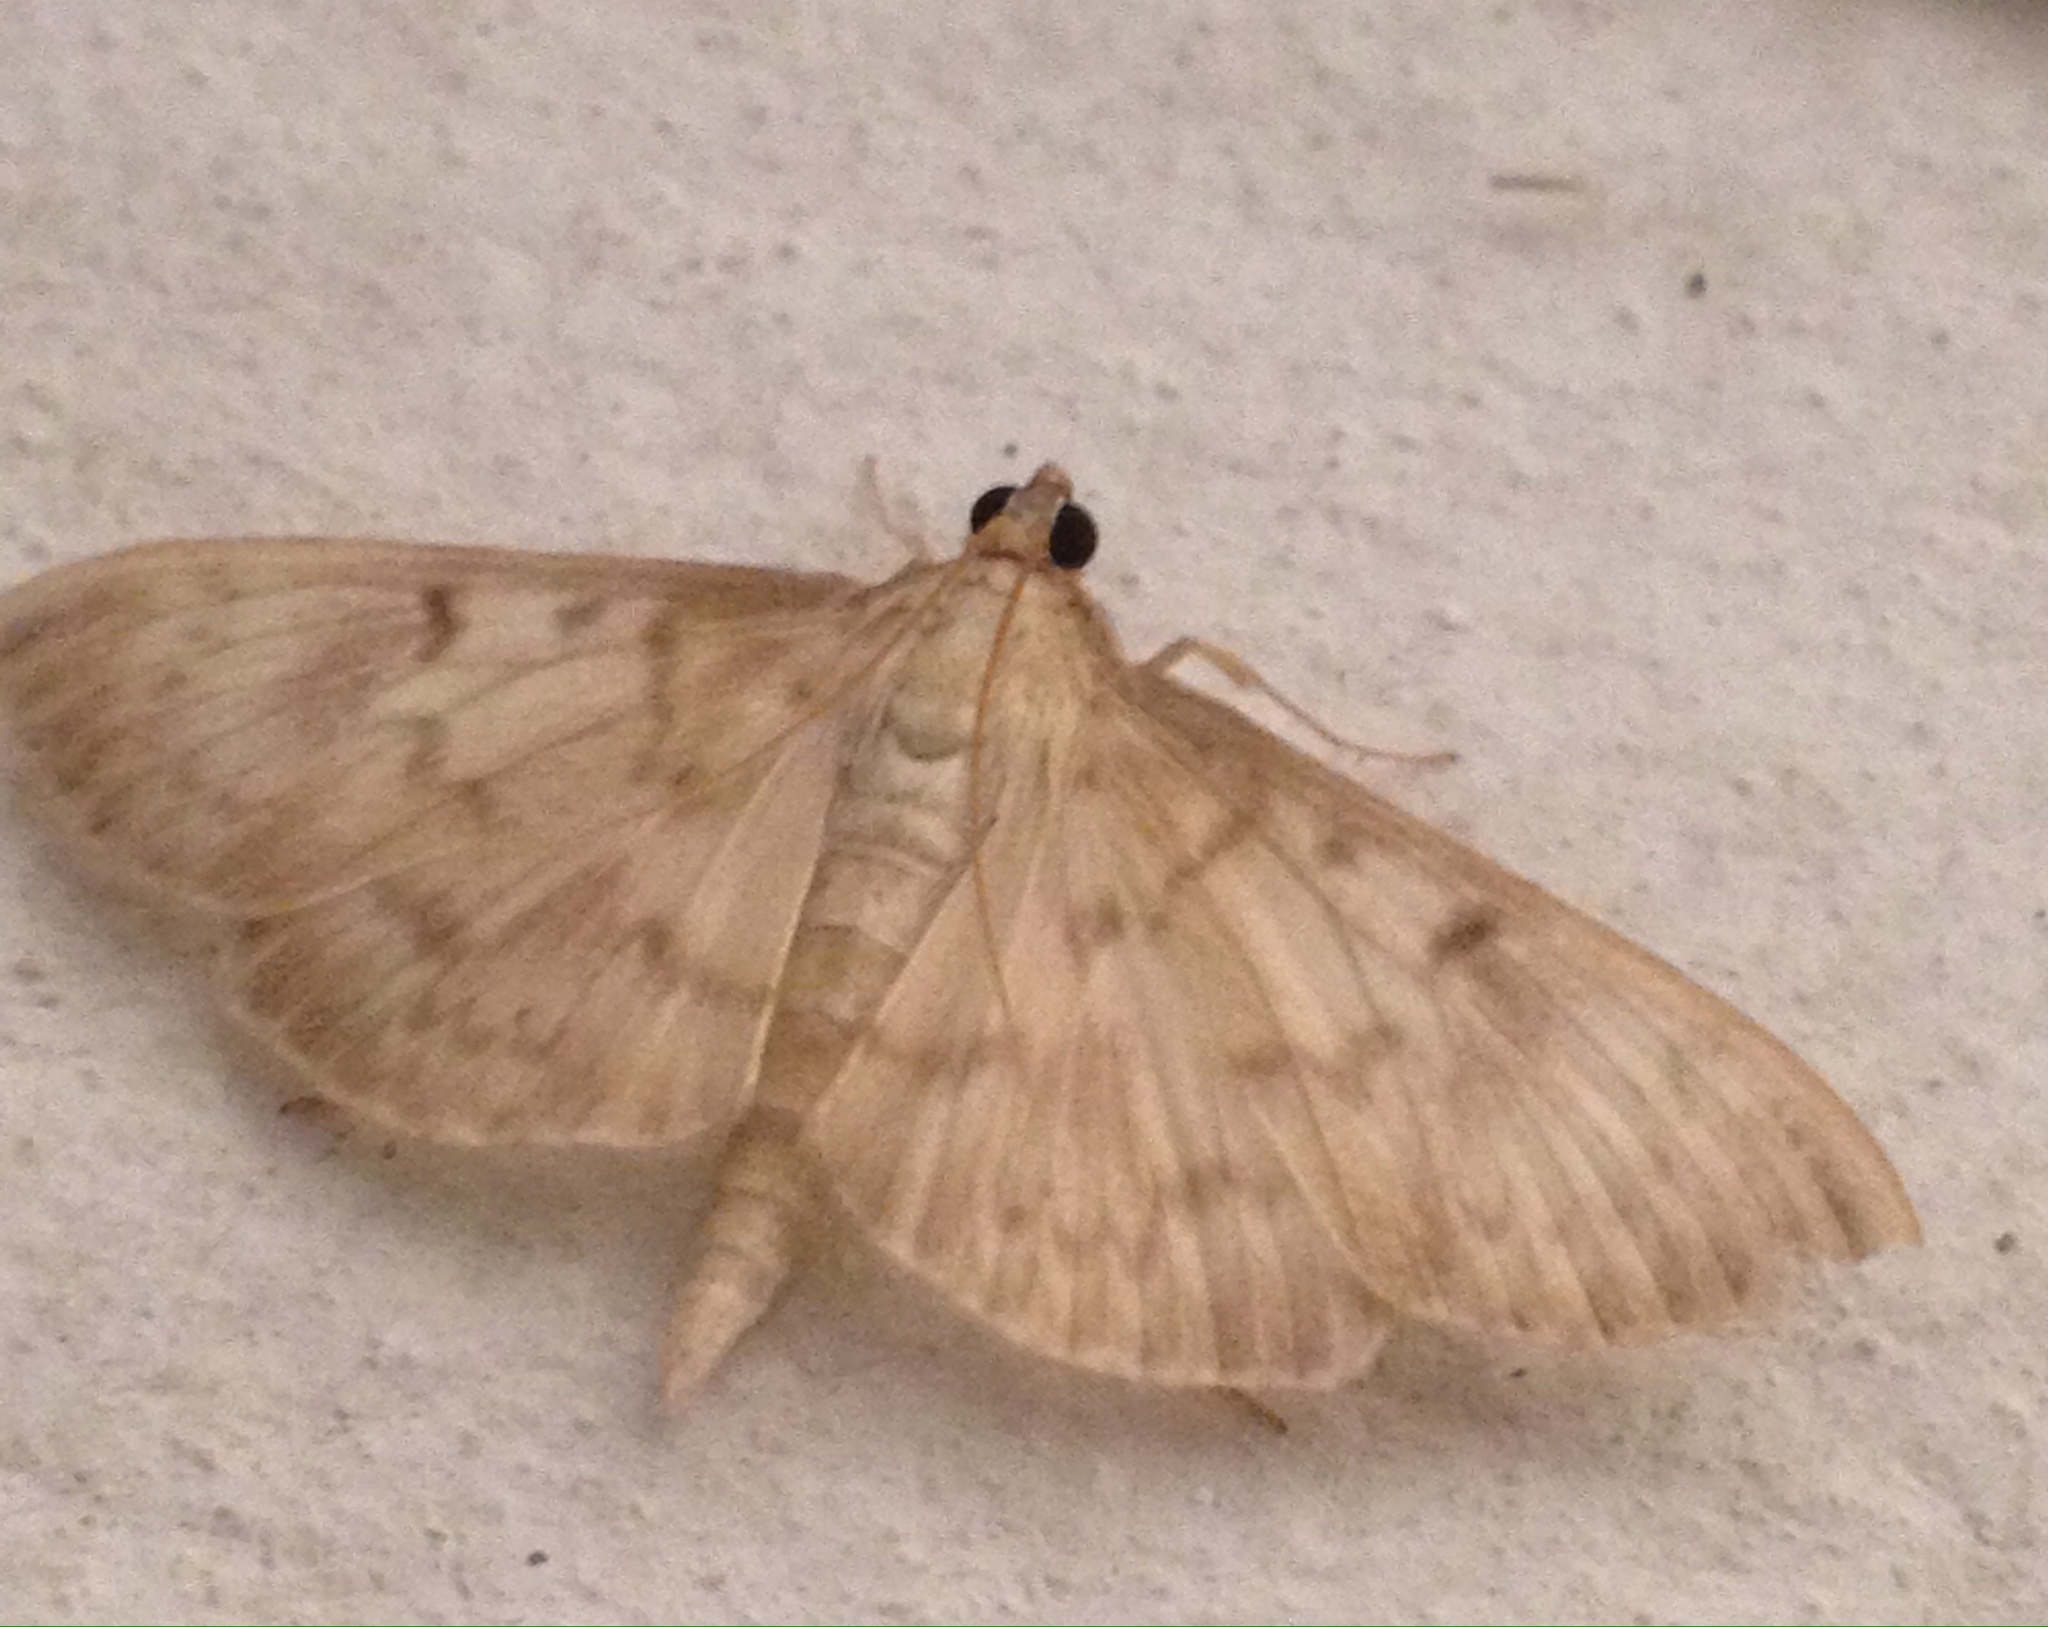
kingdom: Animalia
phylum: Arthropoda
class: Insecta
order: Lepidoptera
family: Crambidae
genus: Patania
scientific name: Patania ruralis
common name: Mother of pearl
